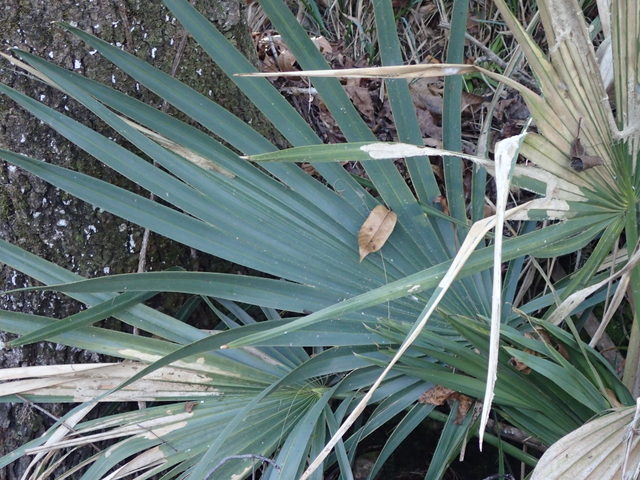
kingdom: Plantae
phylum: Tracheophyta
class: Liliopsida
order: Arecales
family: Arecaceae
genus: Sabal
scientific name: Sabal minor
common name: Dwarf palmetto
